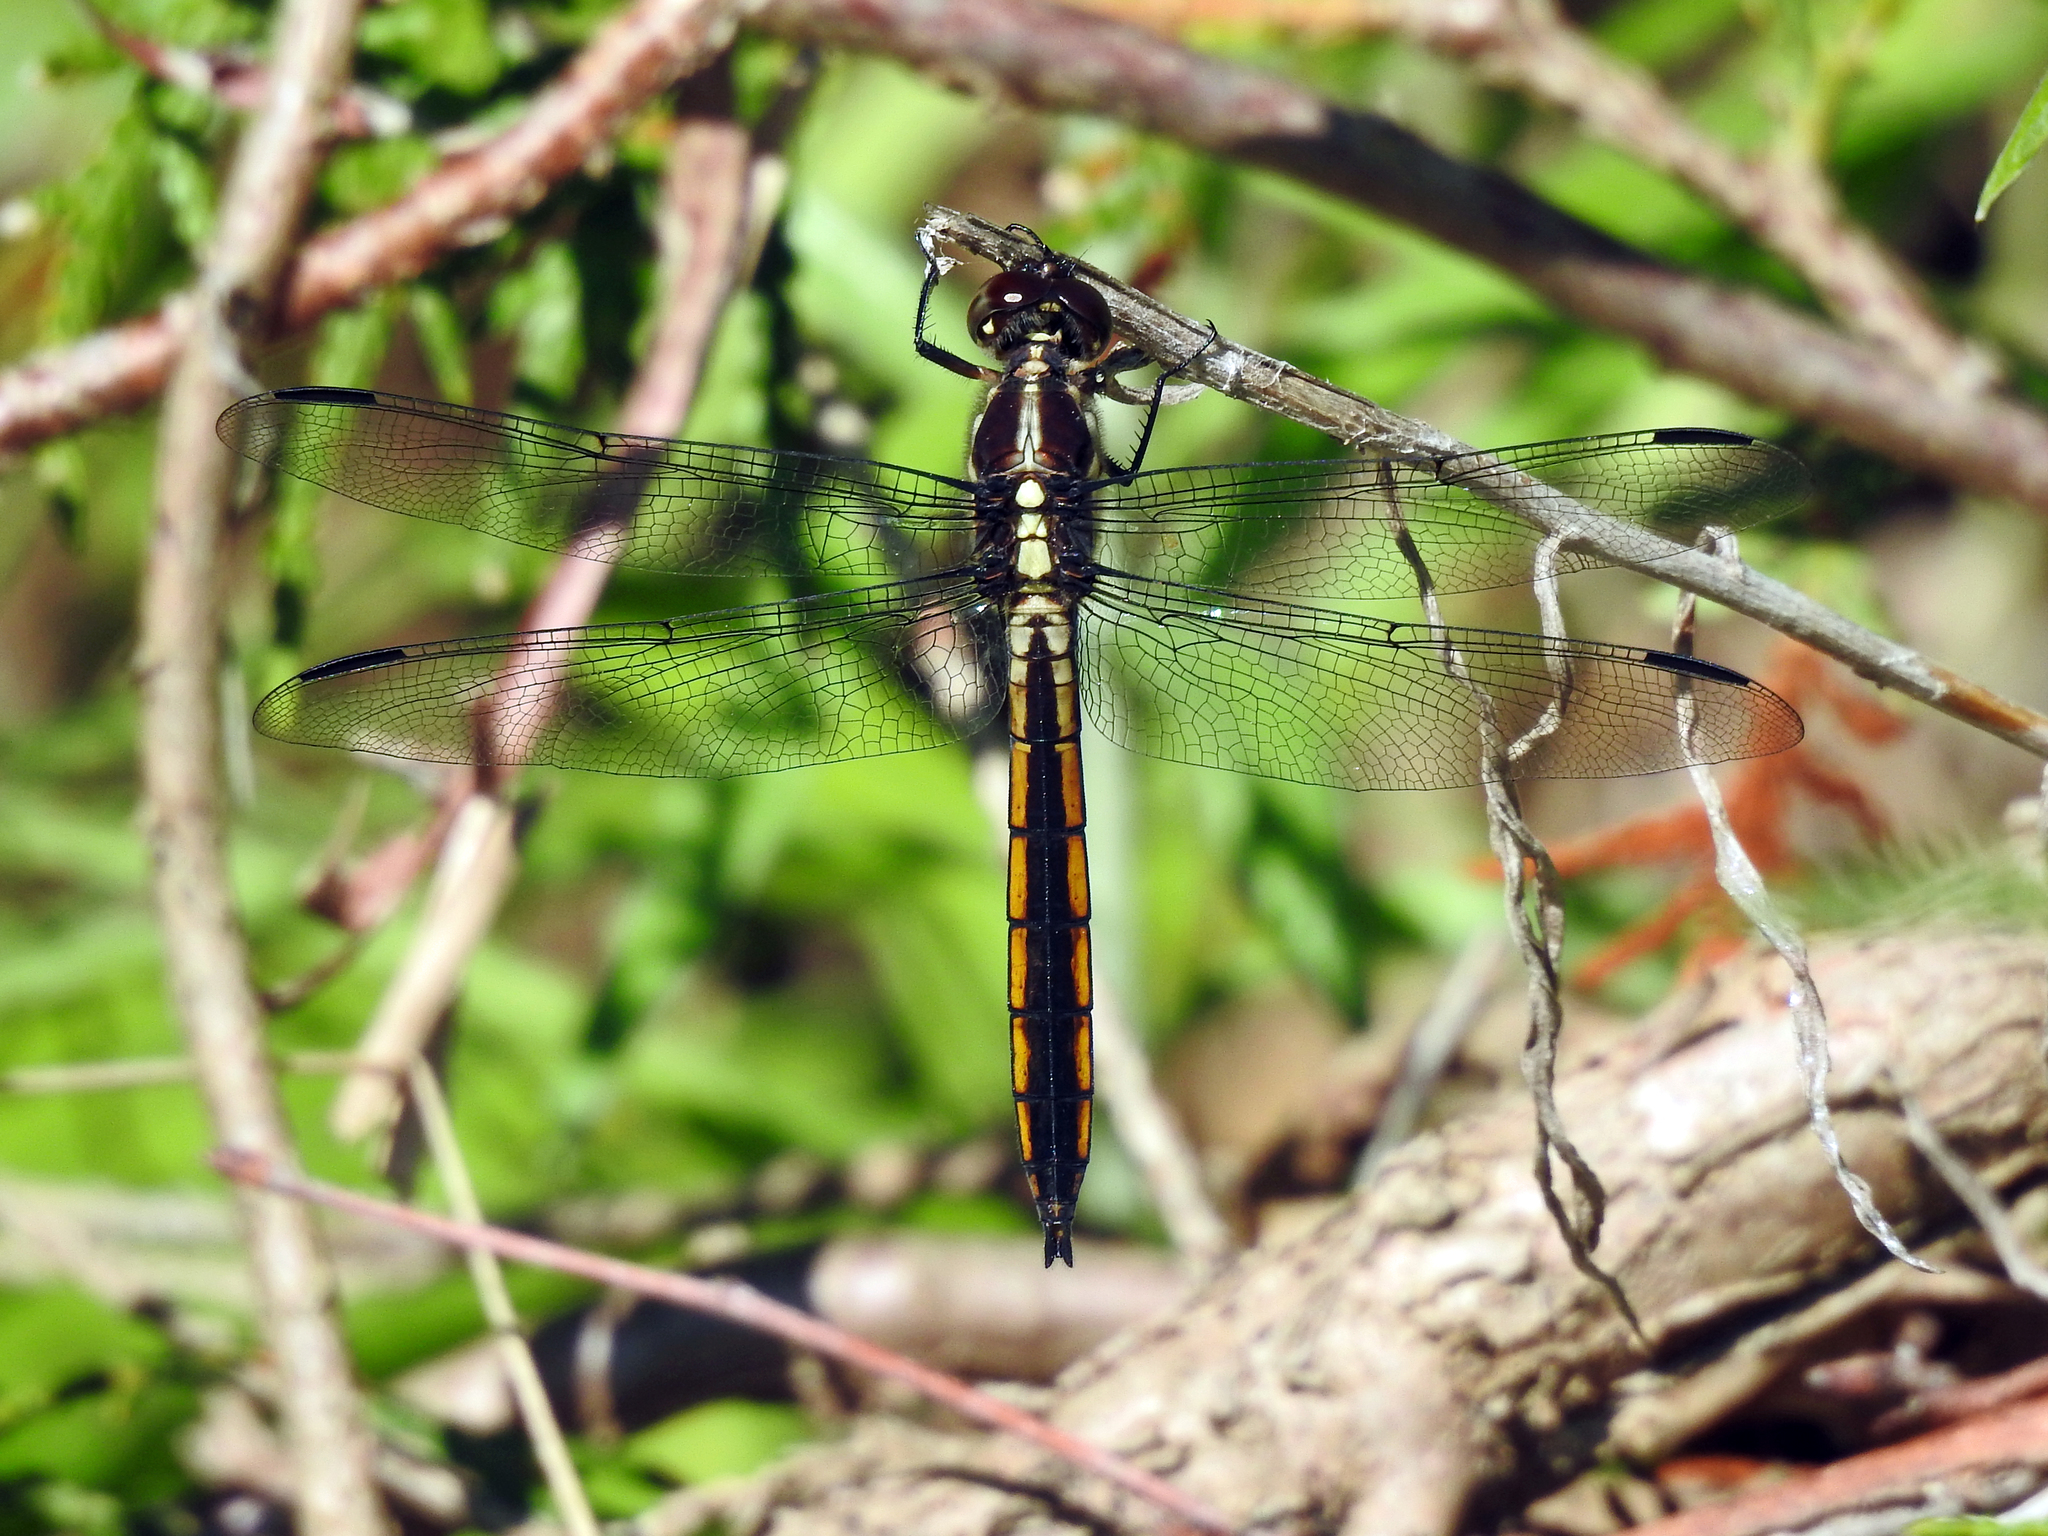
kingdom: Animalia
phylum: Arthropoda
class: Insecta
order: Odonata
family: Libellulidae
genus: Libellula
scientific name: Libellula incesta
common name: Slaty skimmer
